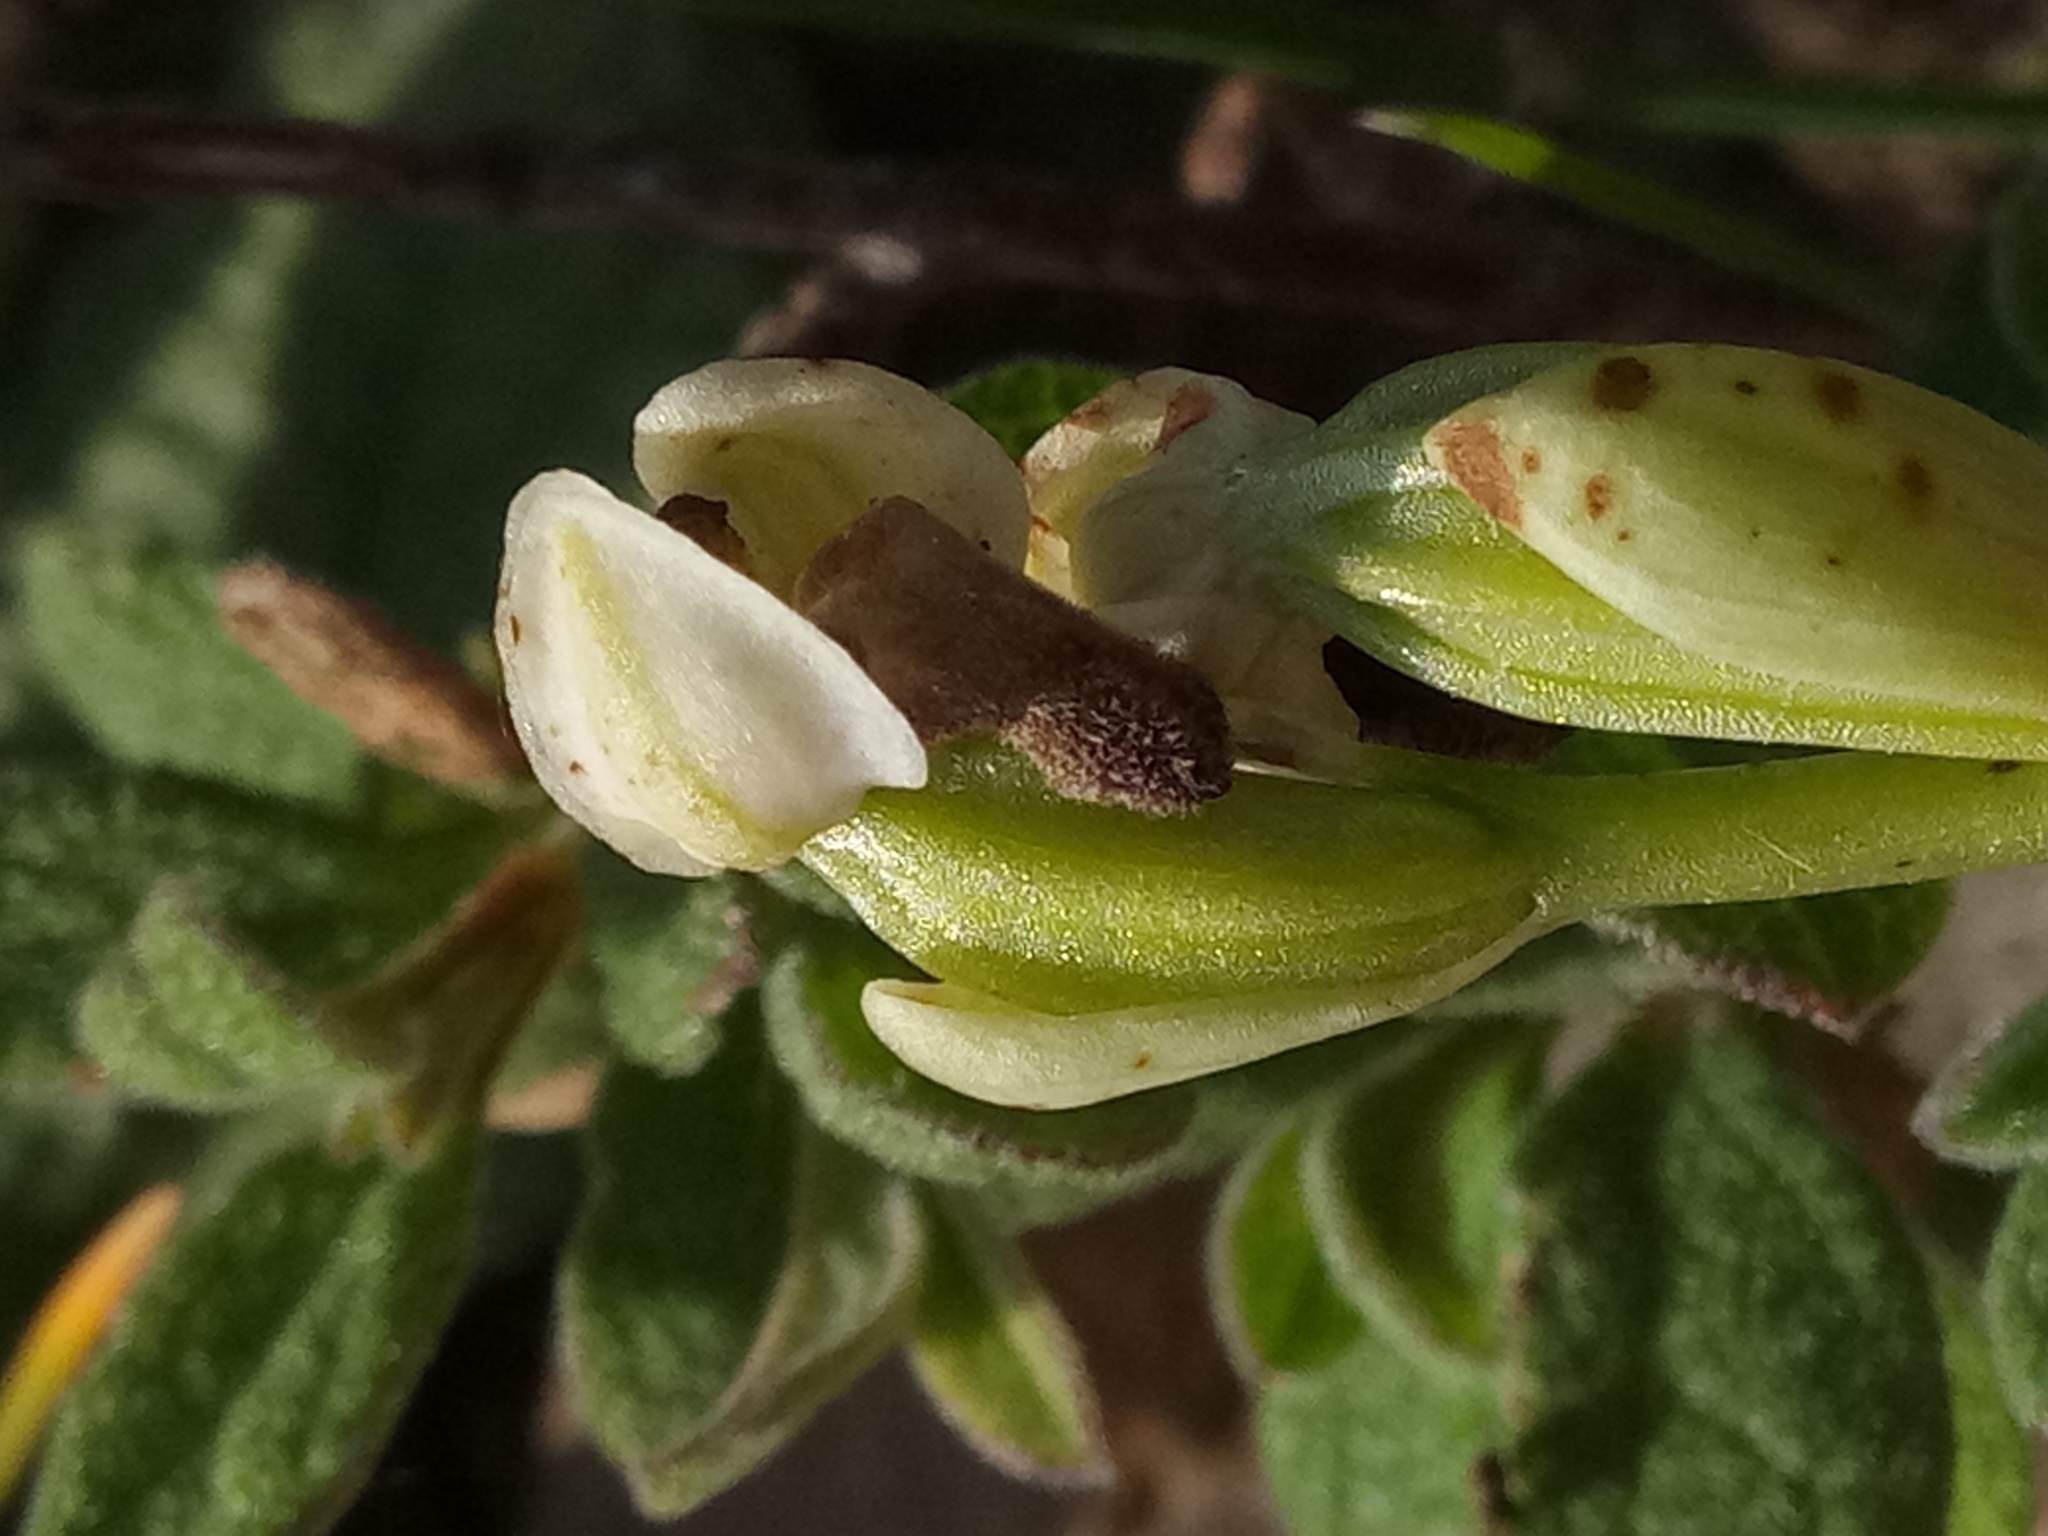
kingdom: Plantae
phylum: Tracheophyta
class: Liliopsida
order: Asparagales
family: Orchidaceae
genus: Ophrys
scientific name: Ophrys fusca
